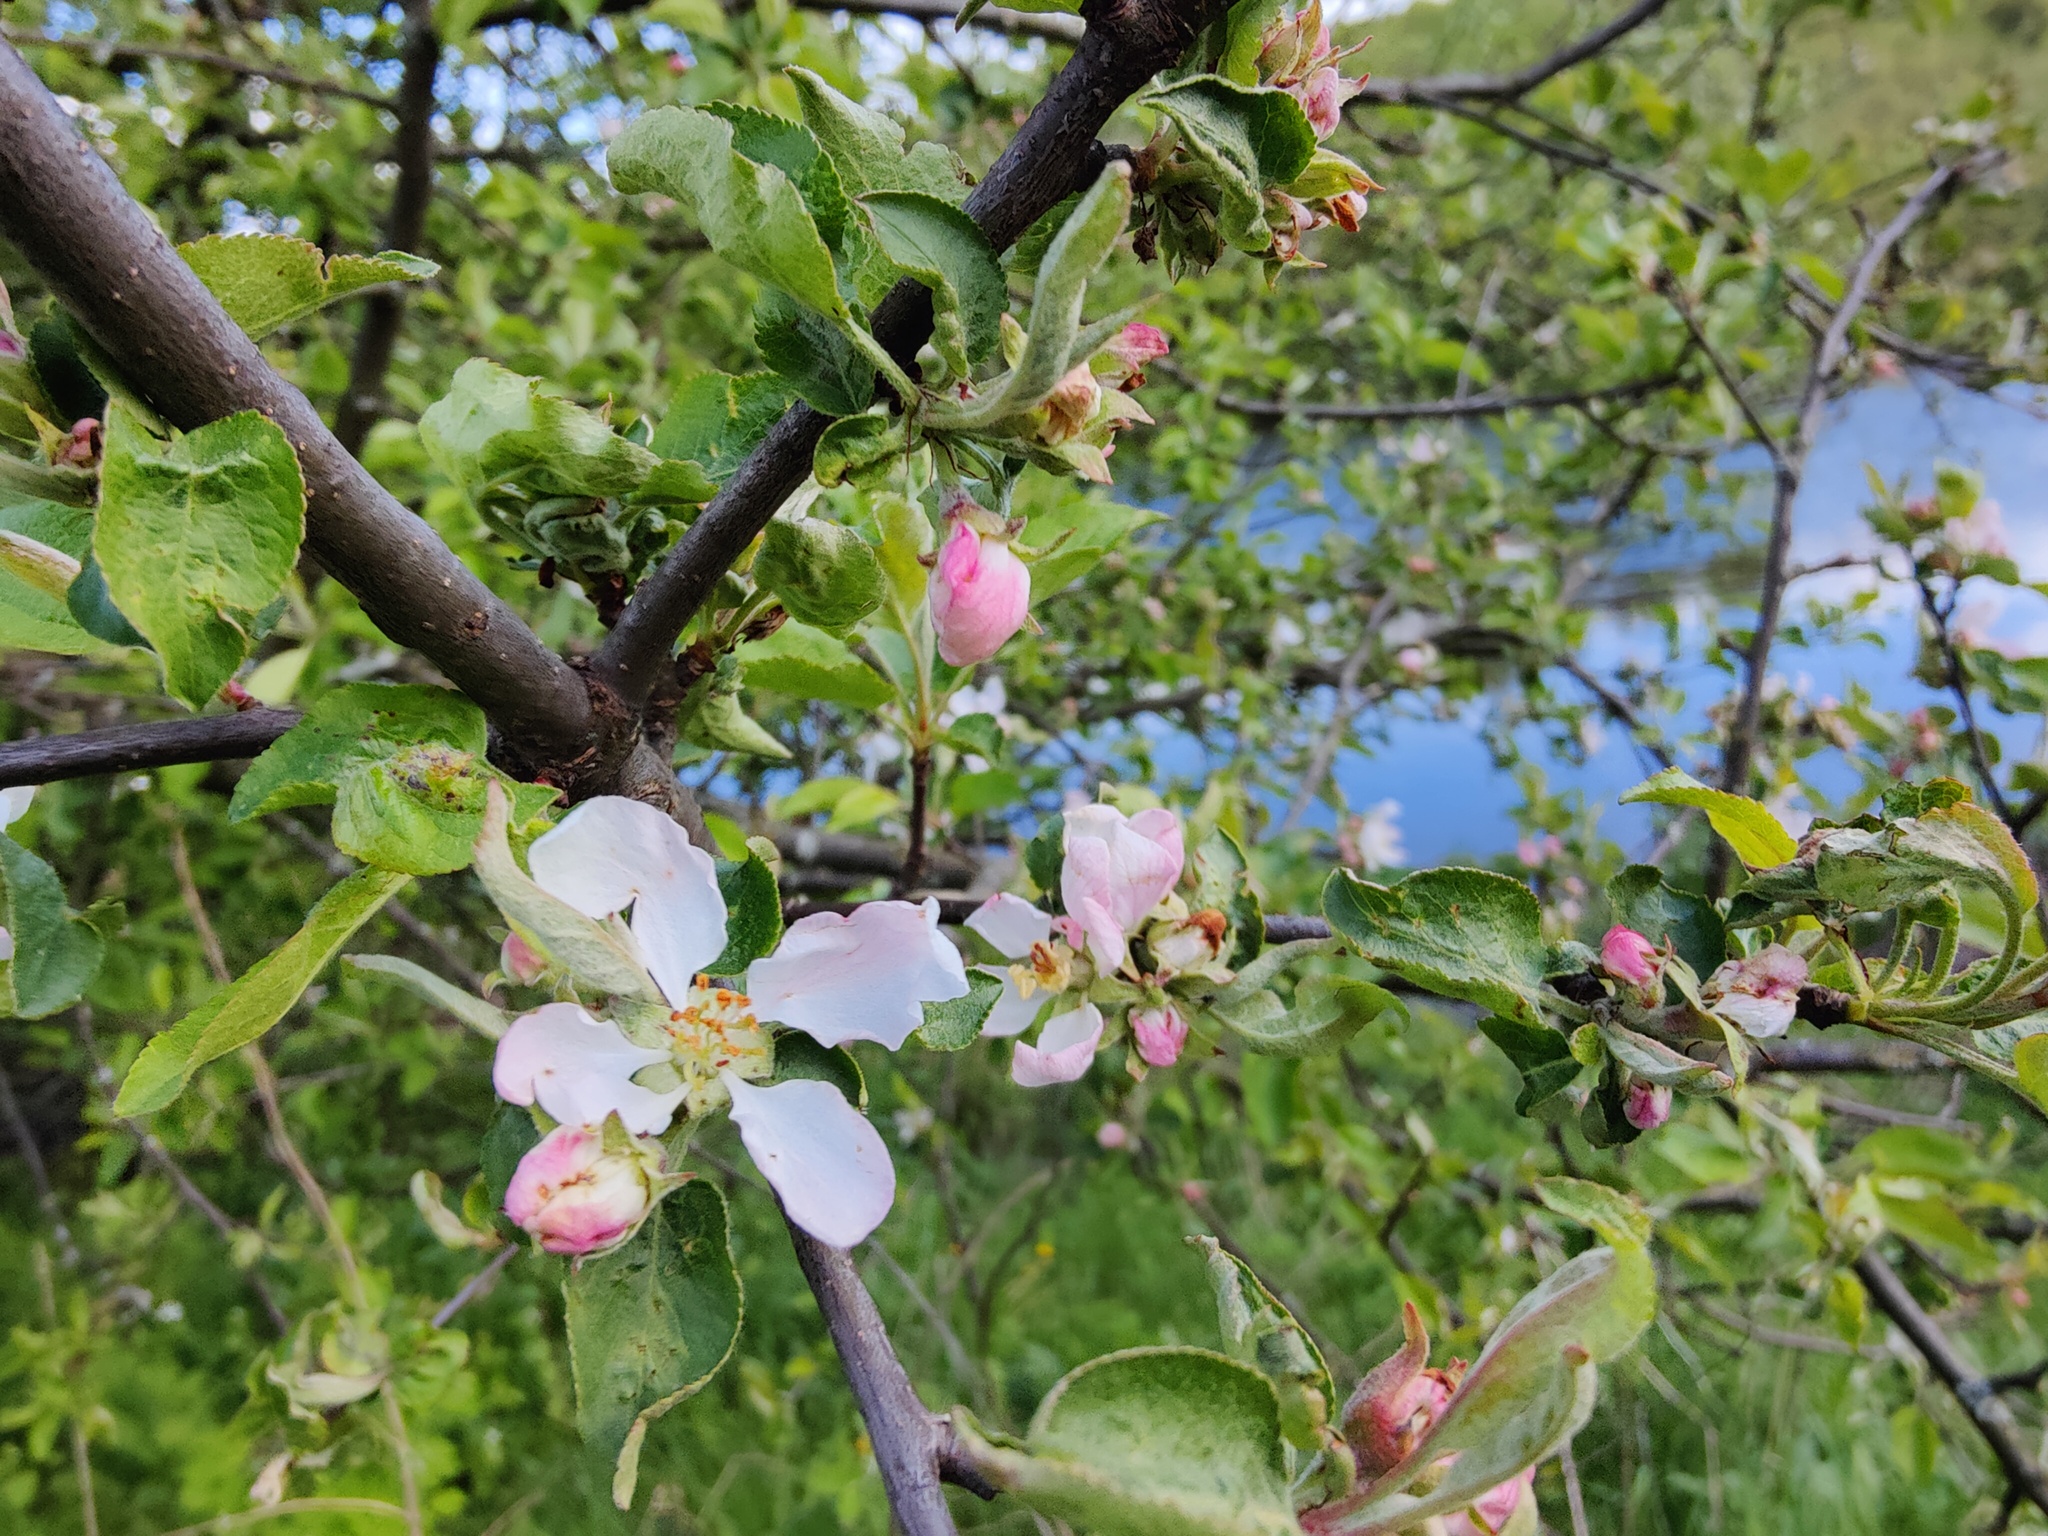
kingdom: Plantae
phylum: Tracheophyta
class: Magnoliopsida
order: Rosales
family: Rosaceae
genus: Malus
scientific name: Malus domestica
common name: Apple
